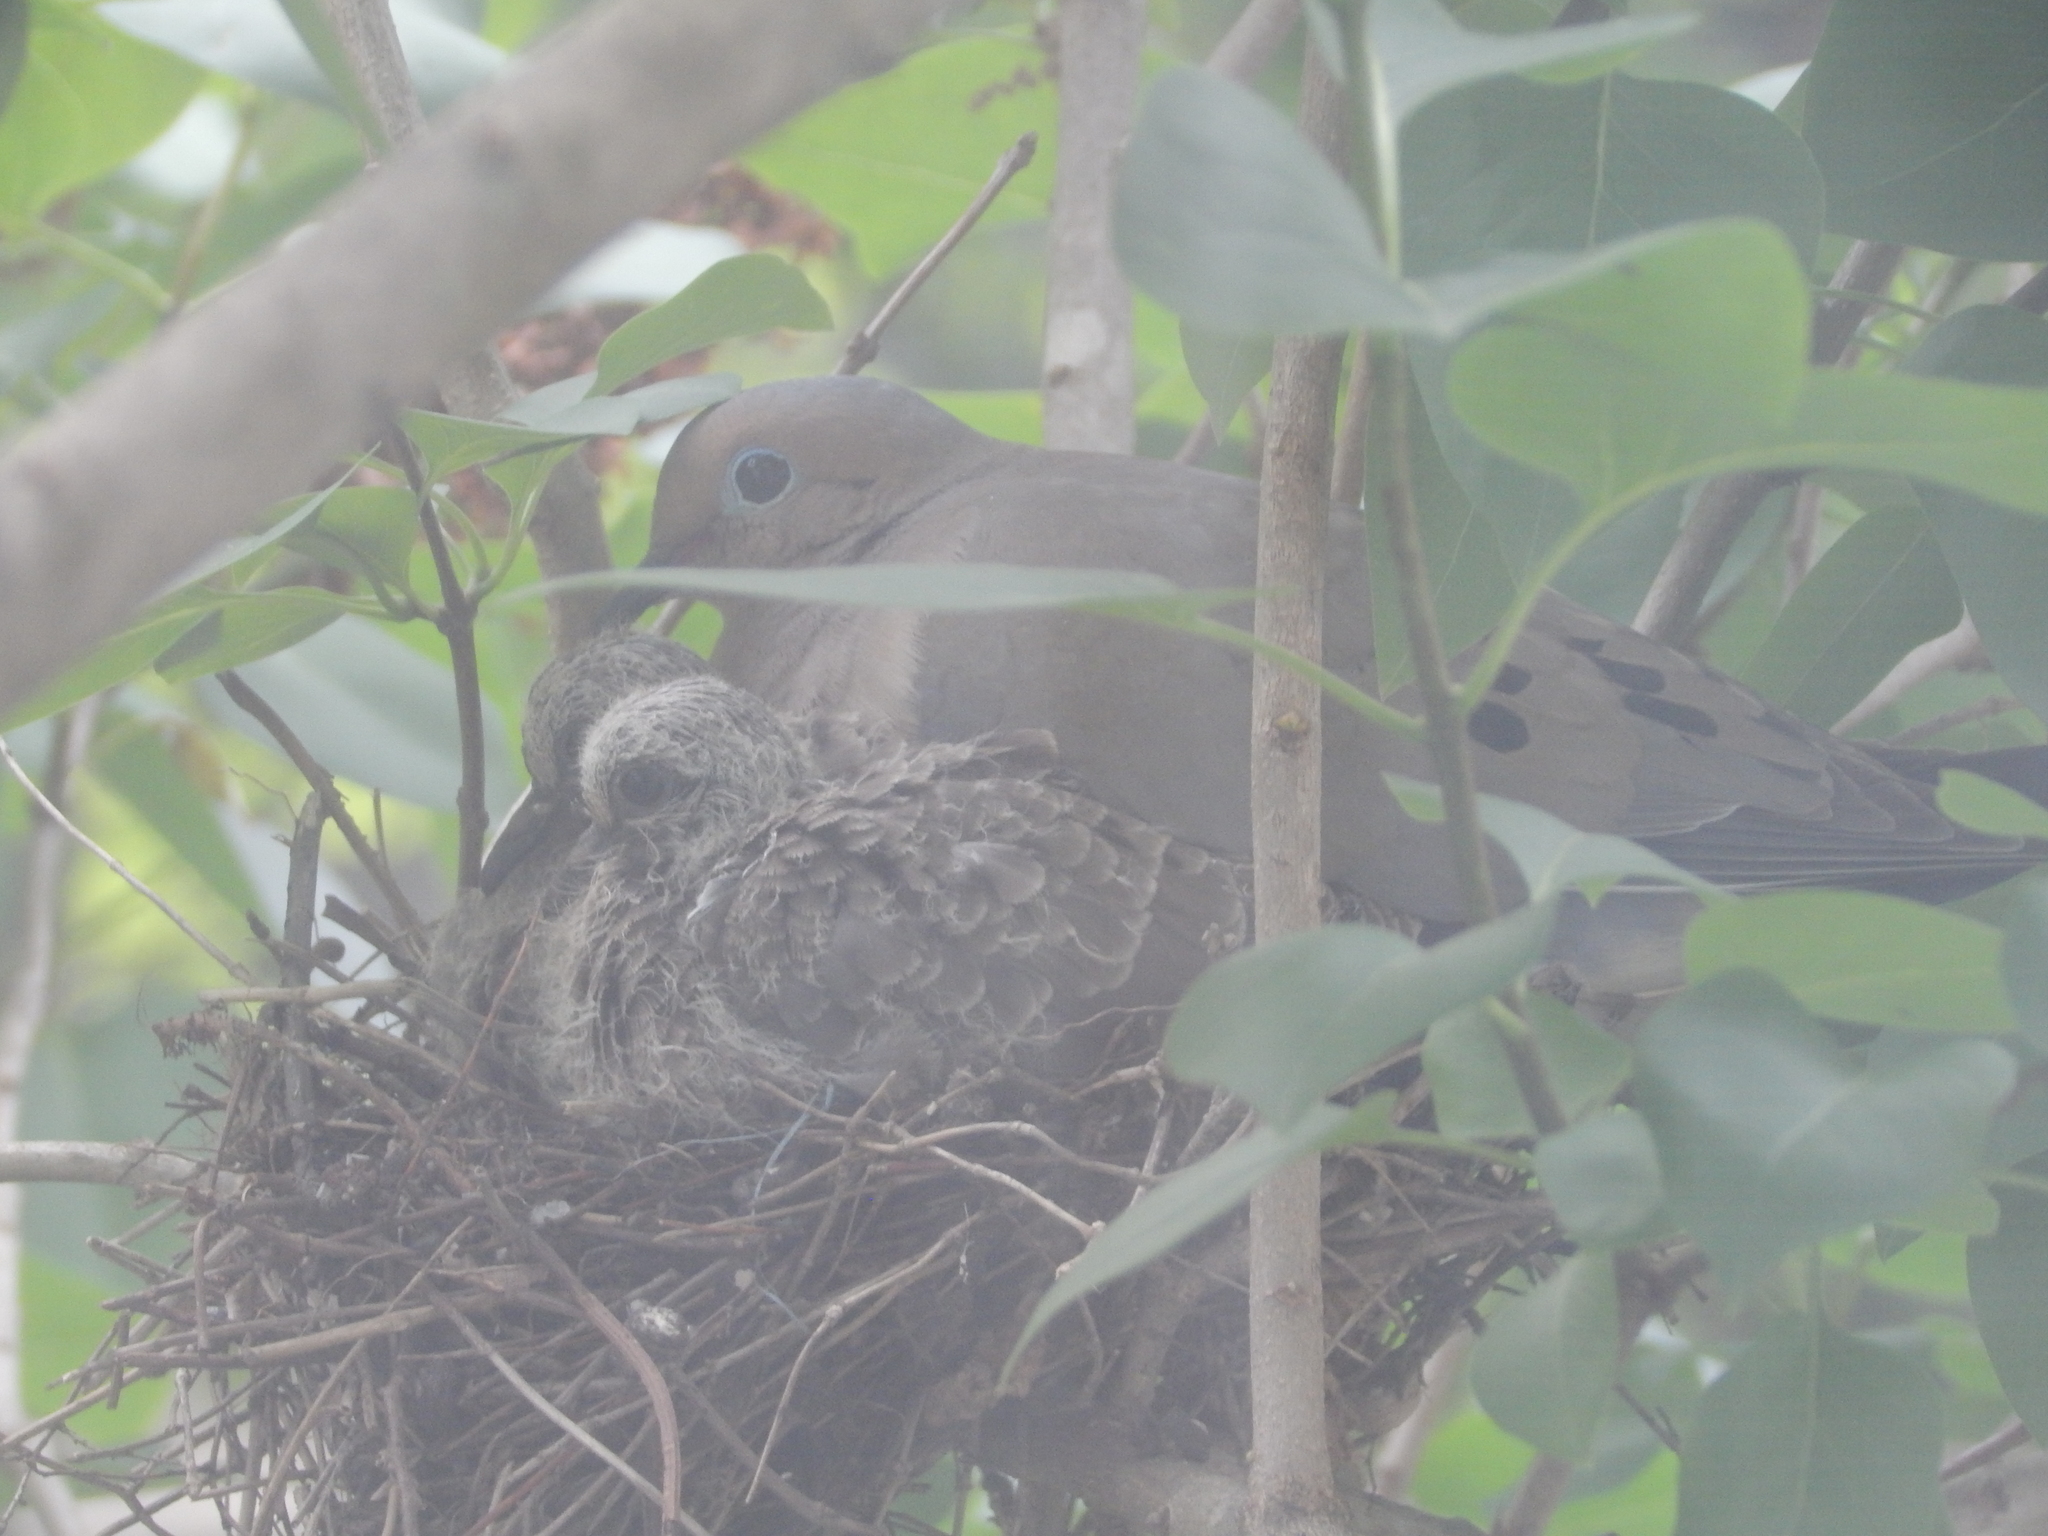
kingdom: Animalia
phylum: Chordata
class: Aves
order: Columbiformes
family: Columbidae
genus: Zenaida
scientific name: Zenaida macroura
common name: Mourning dove
